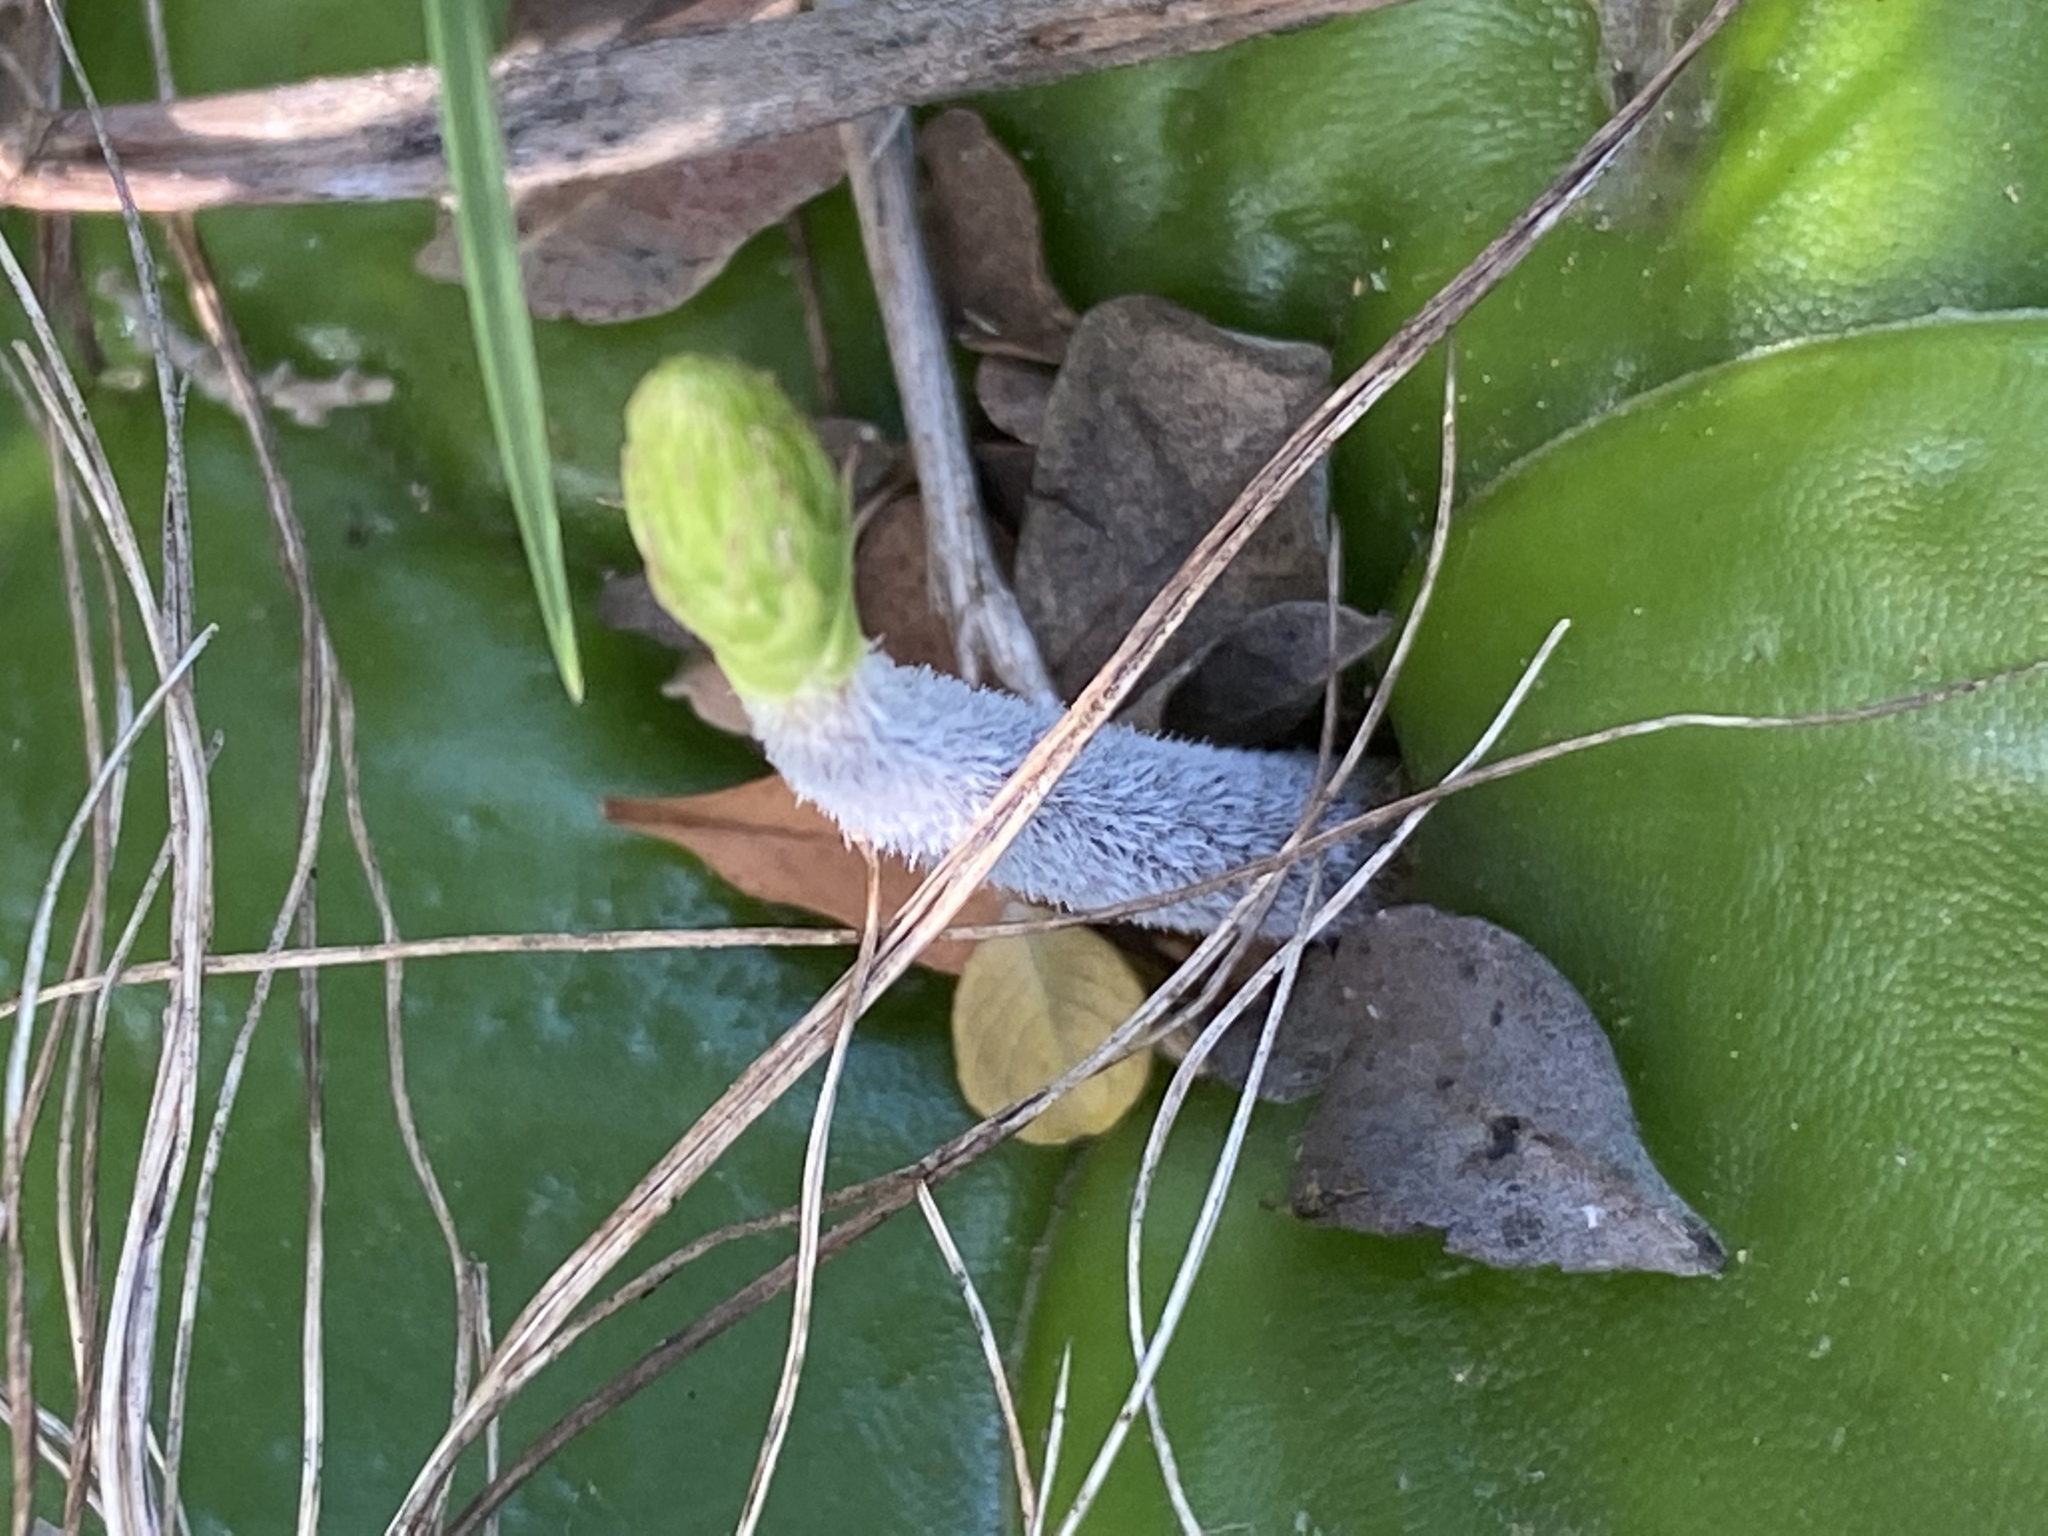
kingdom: Plantae
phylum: Tracheophyta
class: Liliopsida
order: Asparagales
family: Orchidaceae
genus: Holothrix
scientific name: Holothrix burchellii
